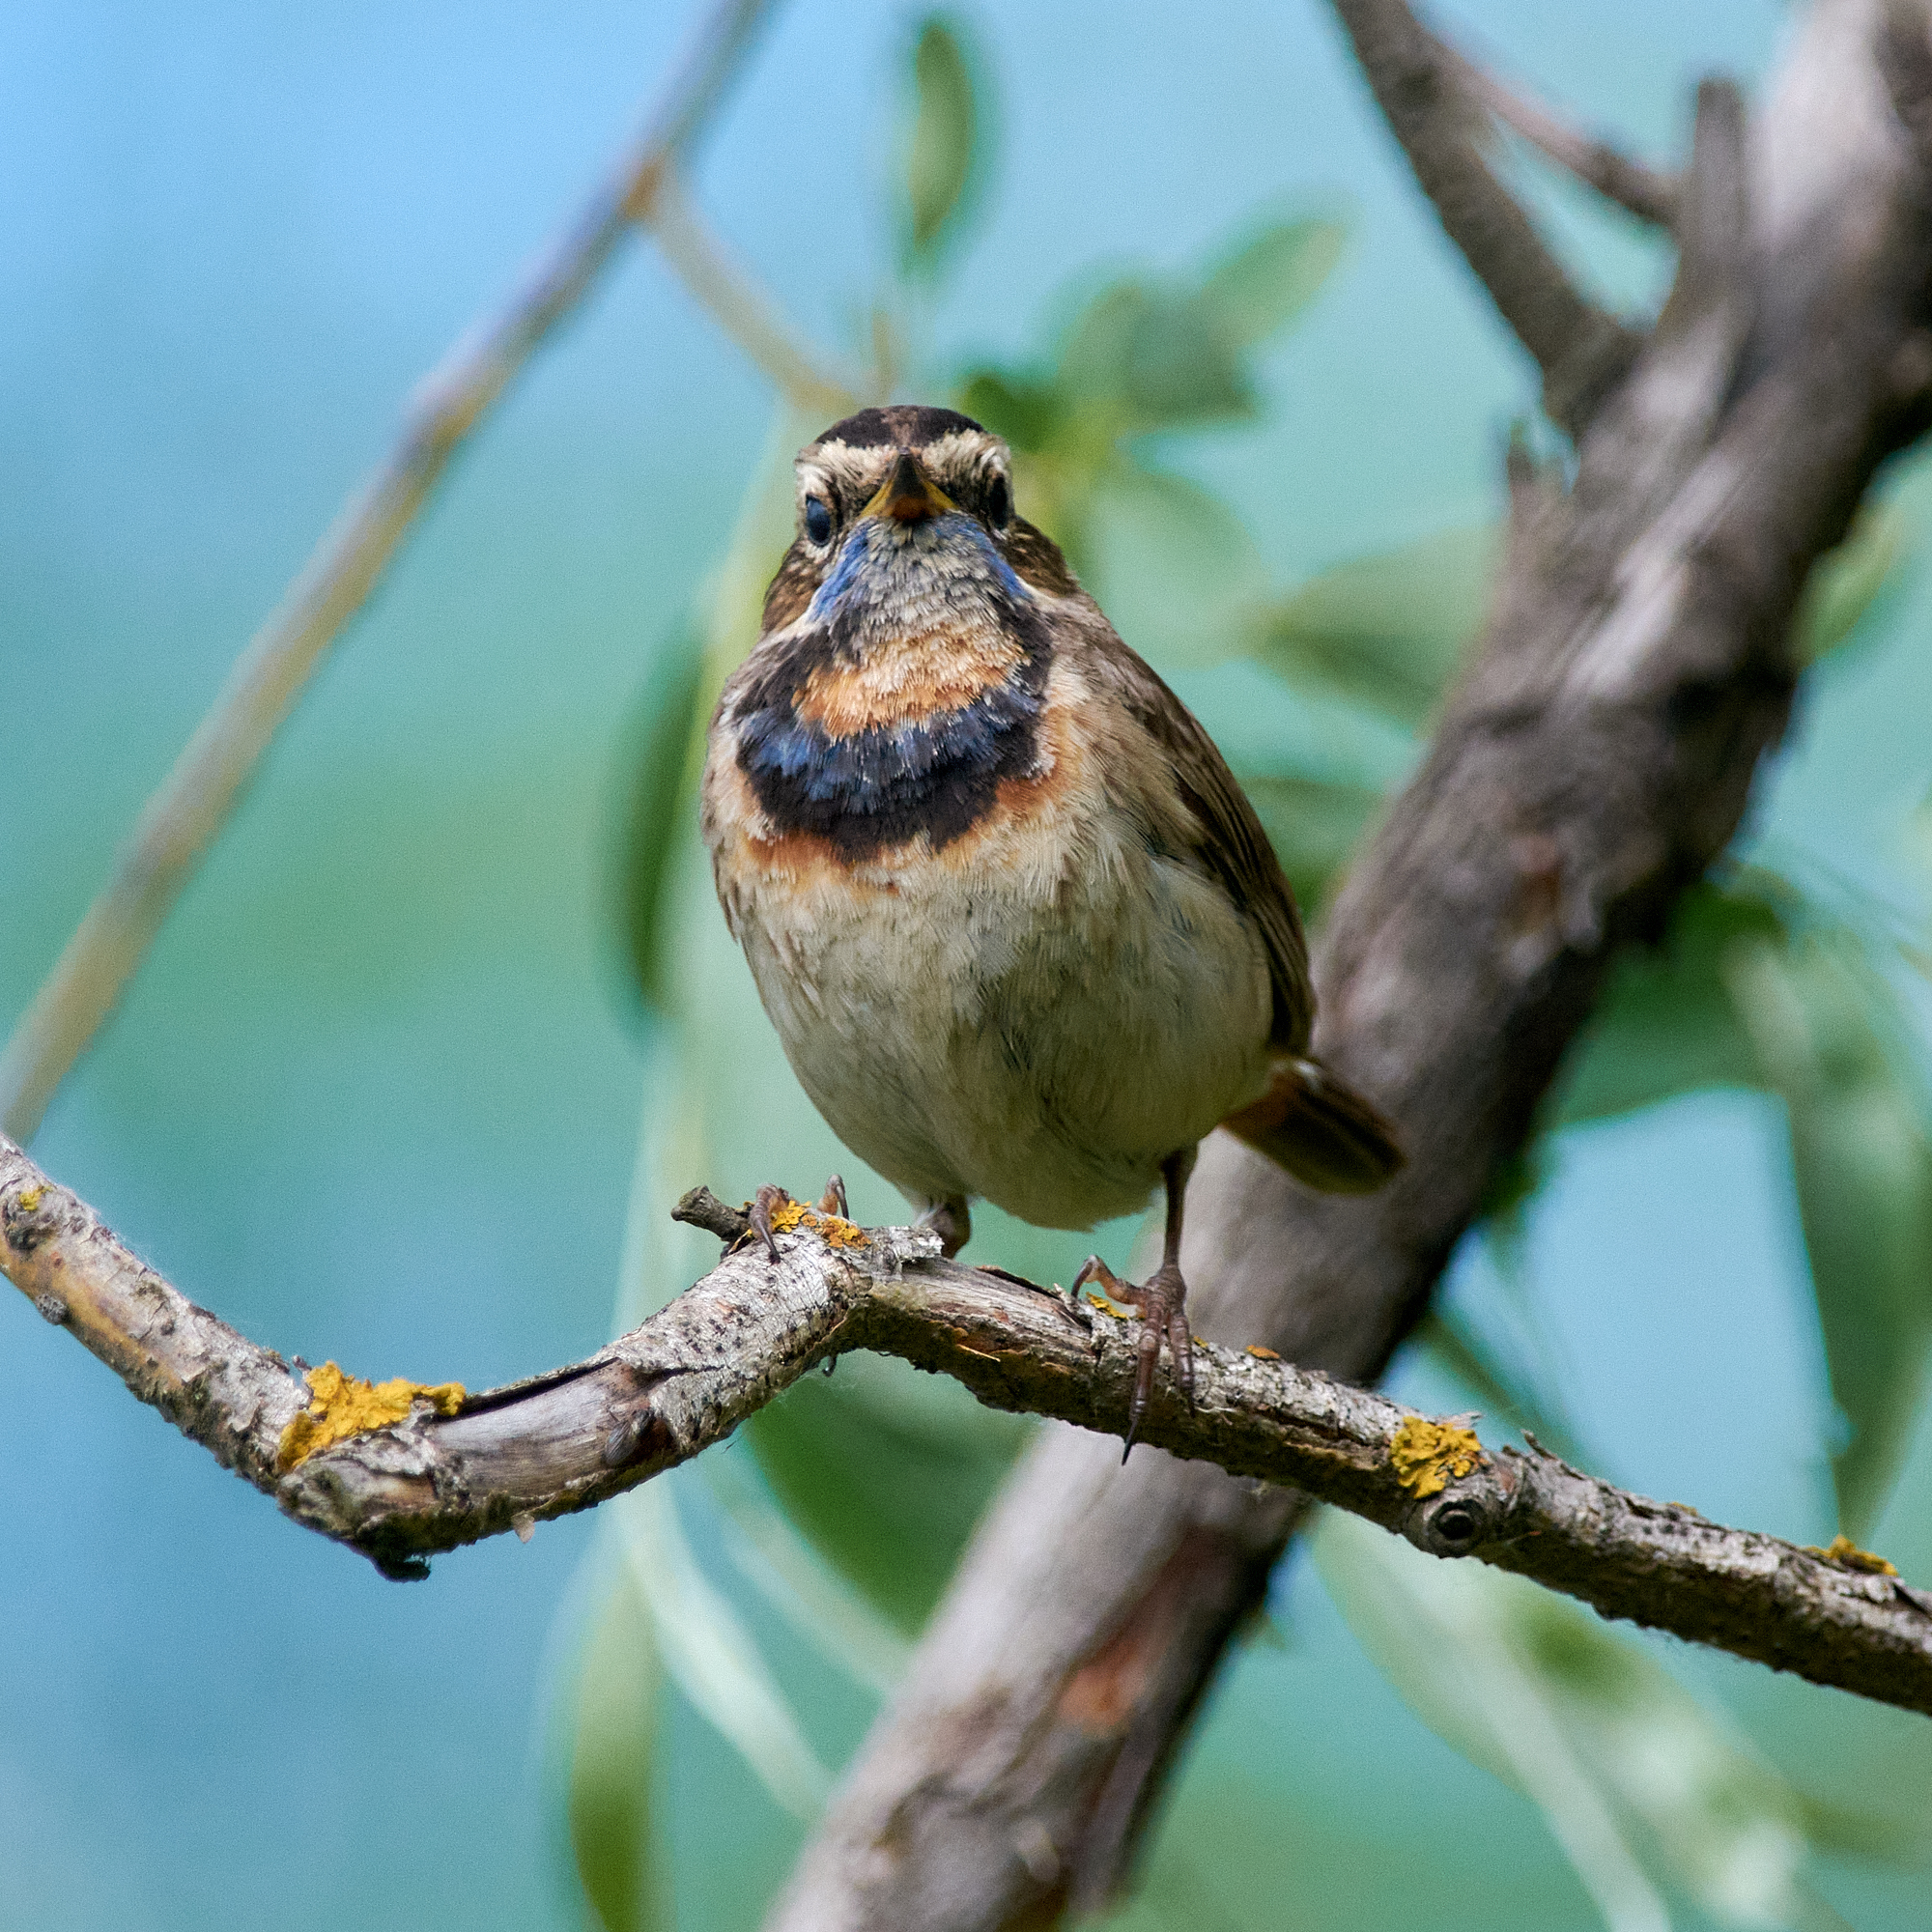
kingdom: Animalia
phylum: Chordata
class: Aves
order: Passeriformes
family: Muscicapidae
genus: Luscinia
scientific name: Luscinia svecica
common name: Bluethroat
